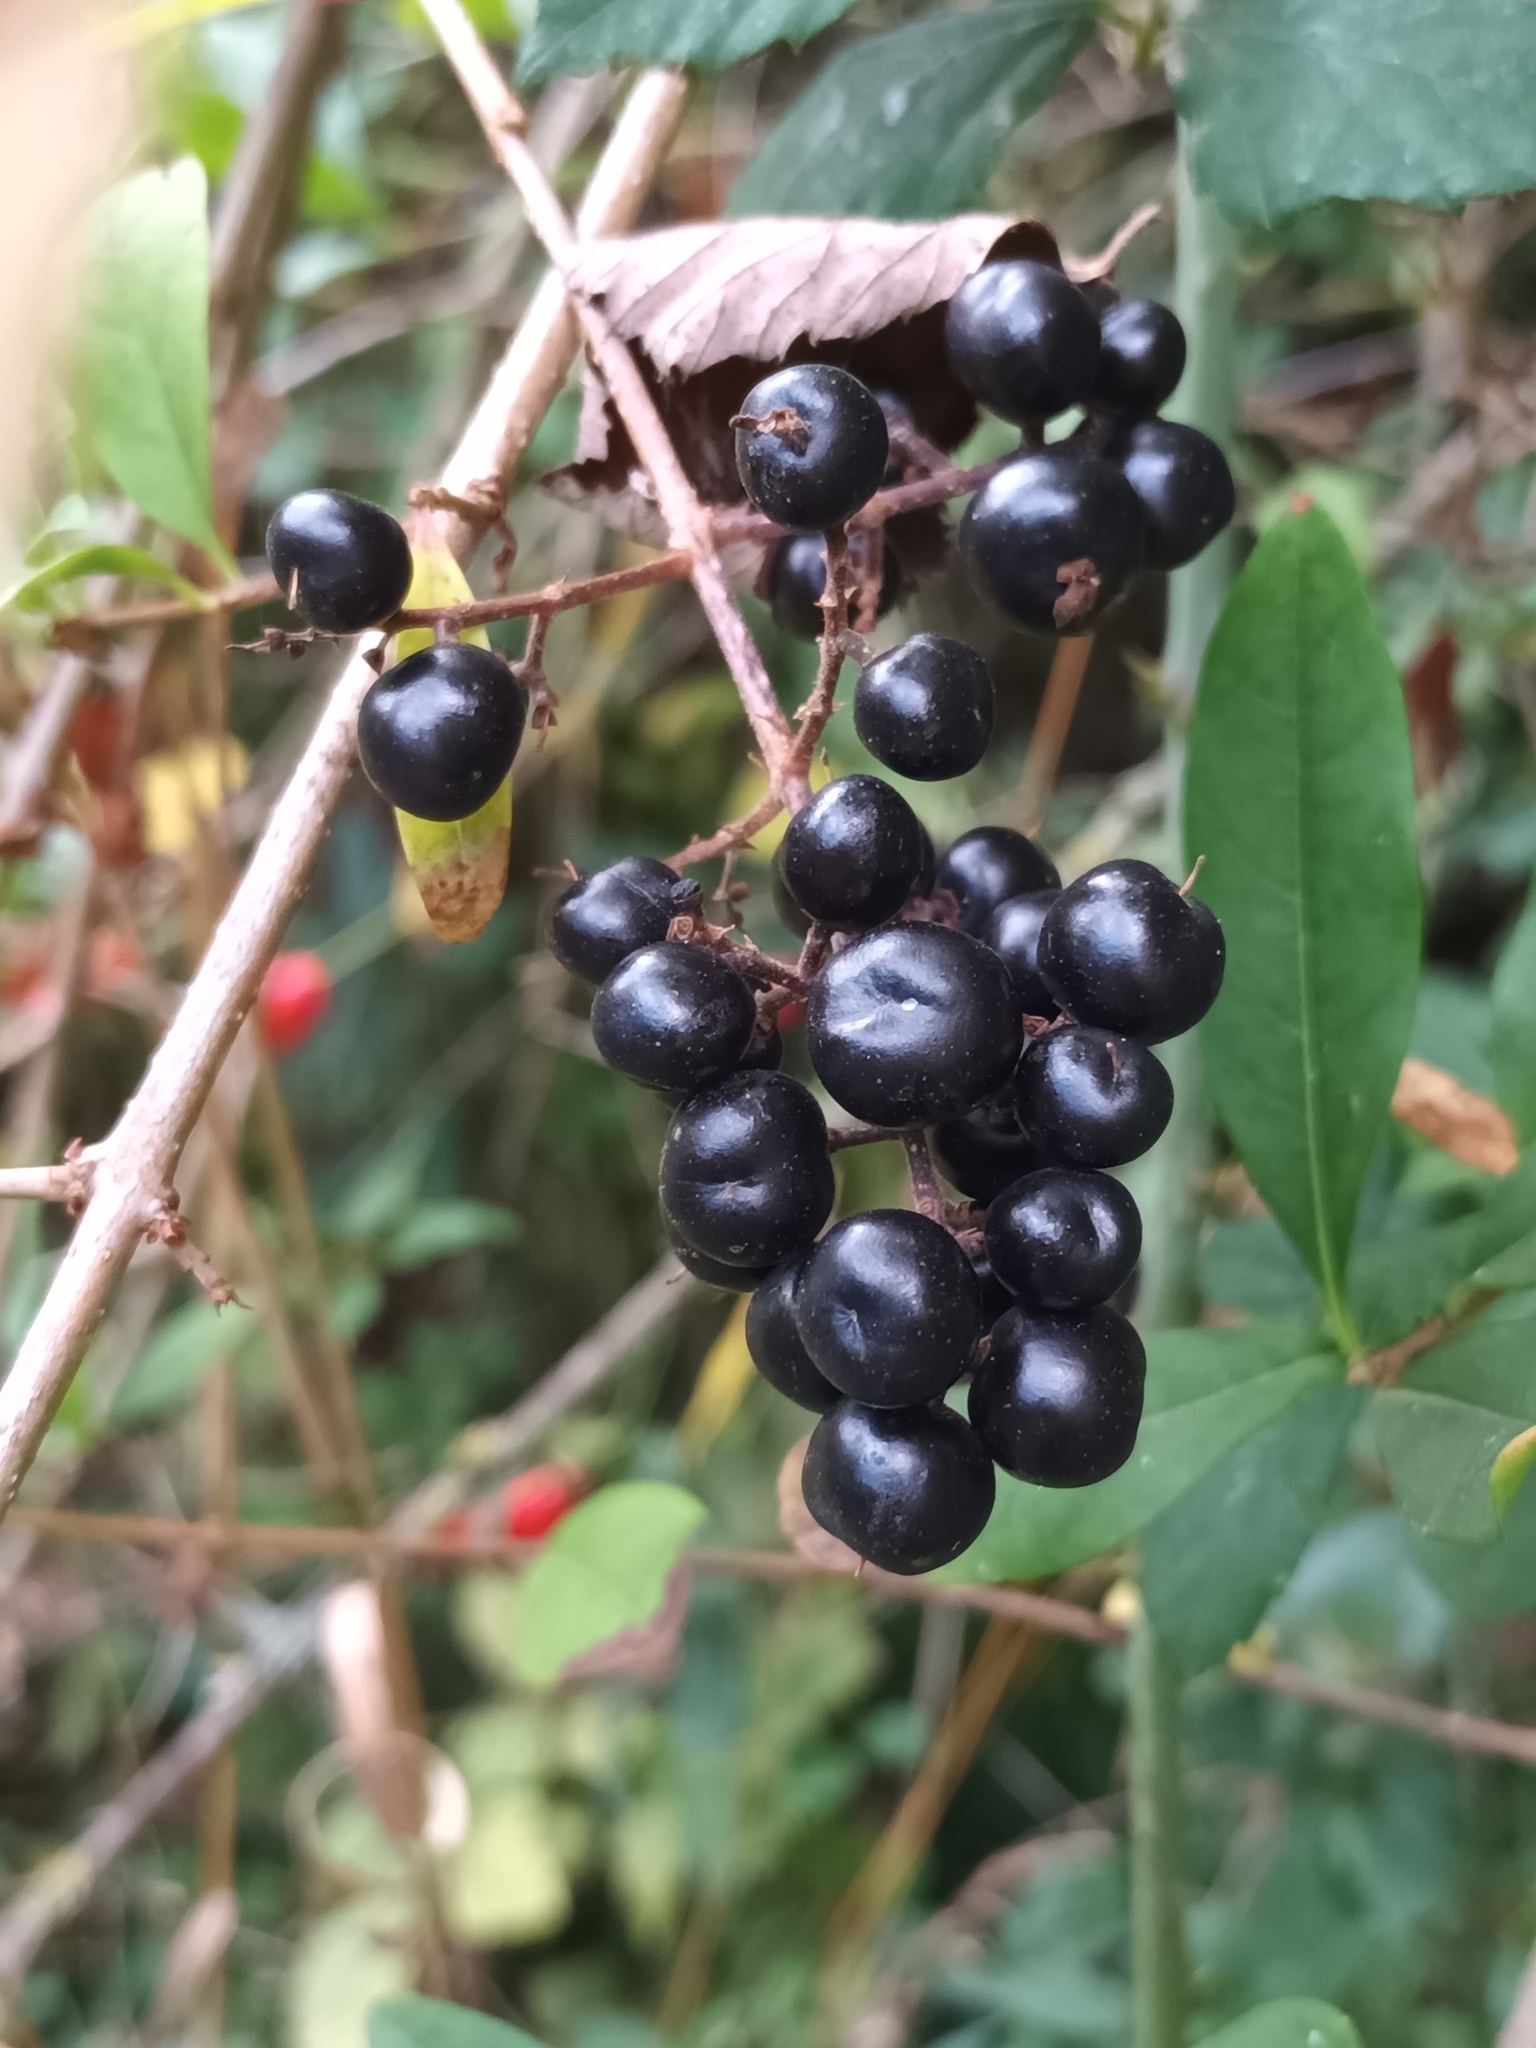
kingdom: Plantae
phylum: Tracheophyta
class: Magnoliopsida
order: Lamiales
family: Oleaceae
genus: Ligustrum
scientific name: Ligustrum vulgare
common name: Wild privet
